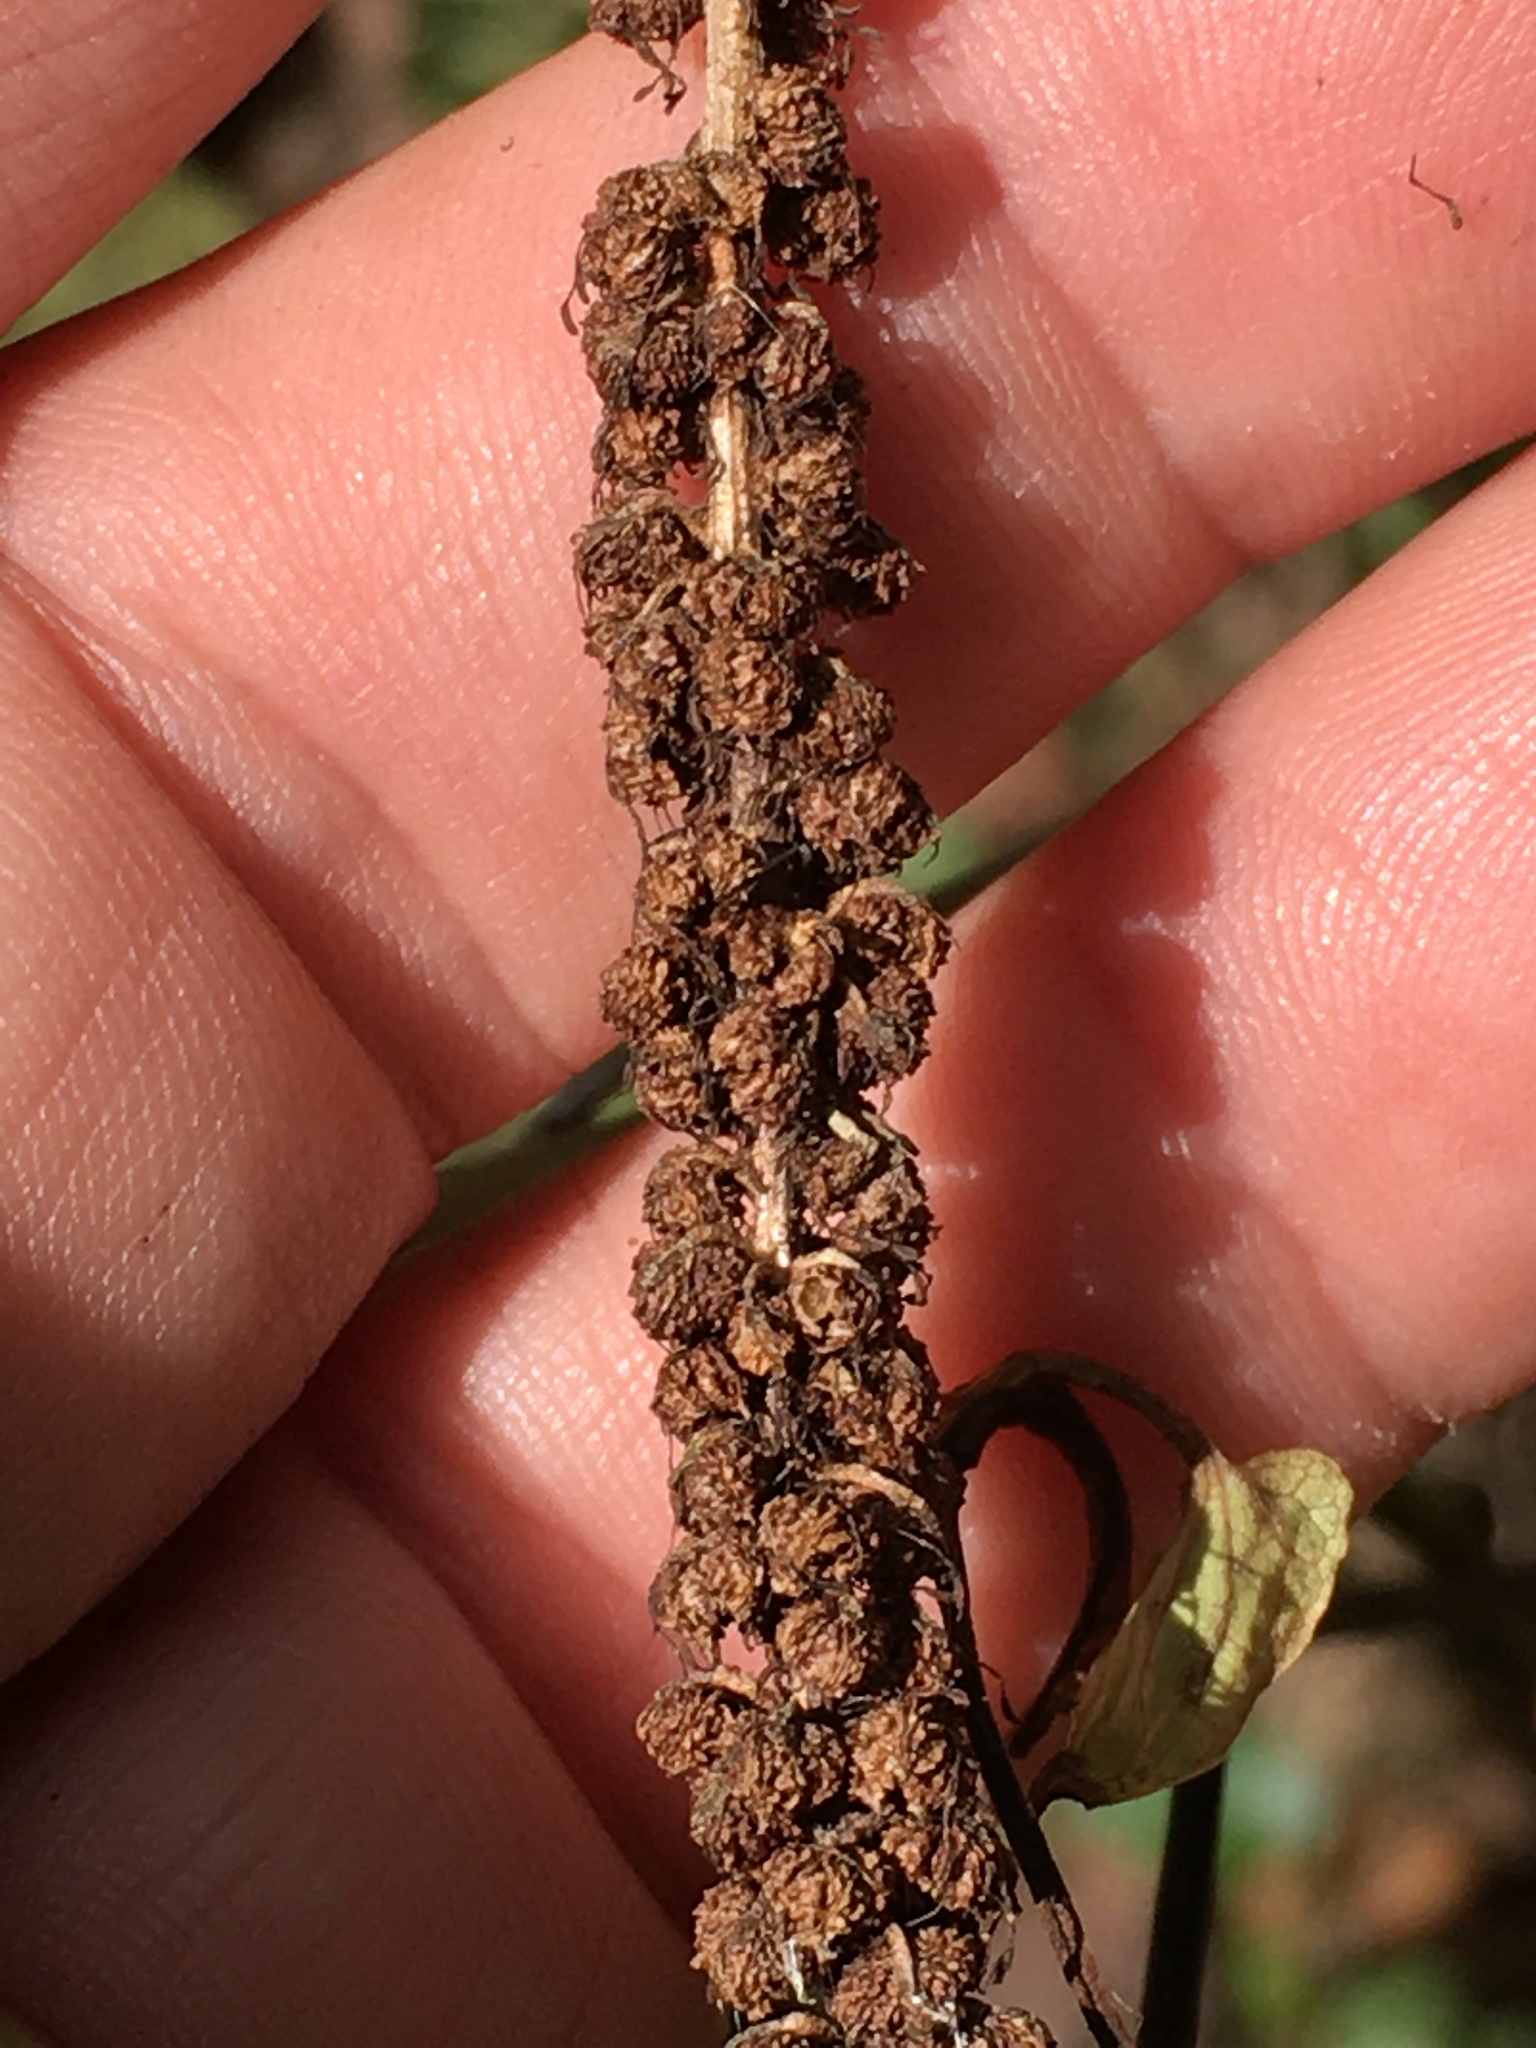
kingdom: Plantae
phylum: Tracheophyta
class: Magnoliopsida
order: Piperales
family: Saururaceae
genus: Saururus
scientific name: Saururus cernuus
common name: Lizard's-tail
